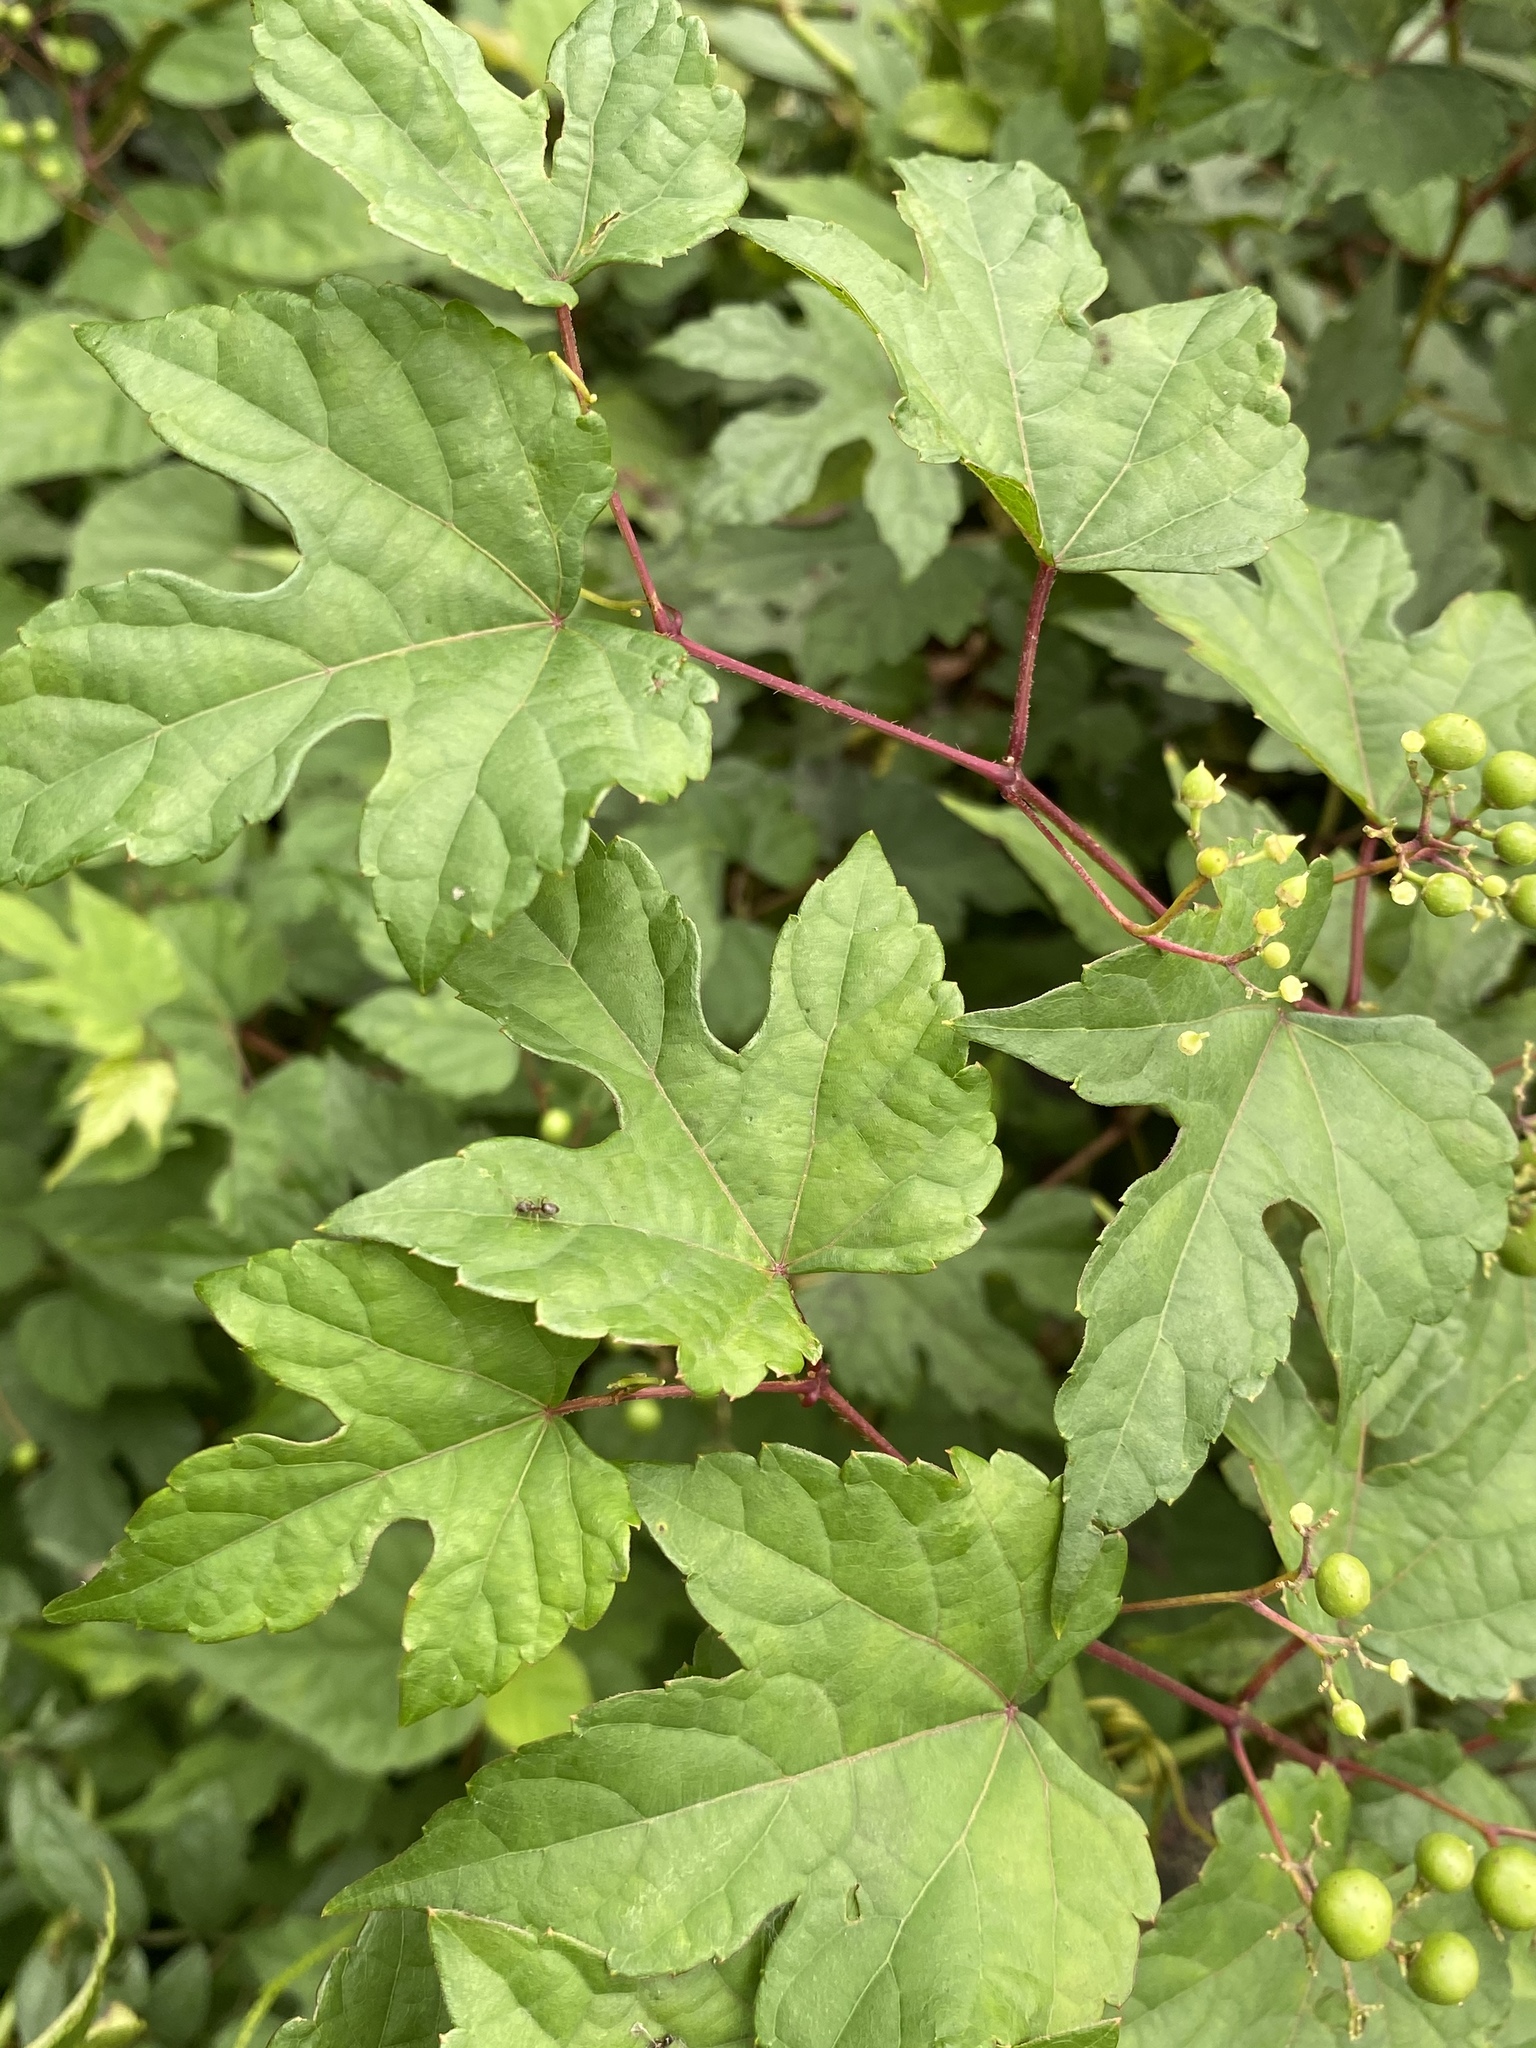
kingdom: Plantae
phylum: Tracheophyta
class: Magnoliopsida
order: Vitales
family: Vitaceae
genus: Ampelopsis
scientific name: Ampelopsis glandulosa
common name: Amur peppervine
